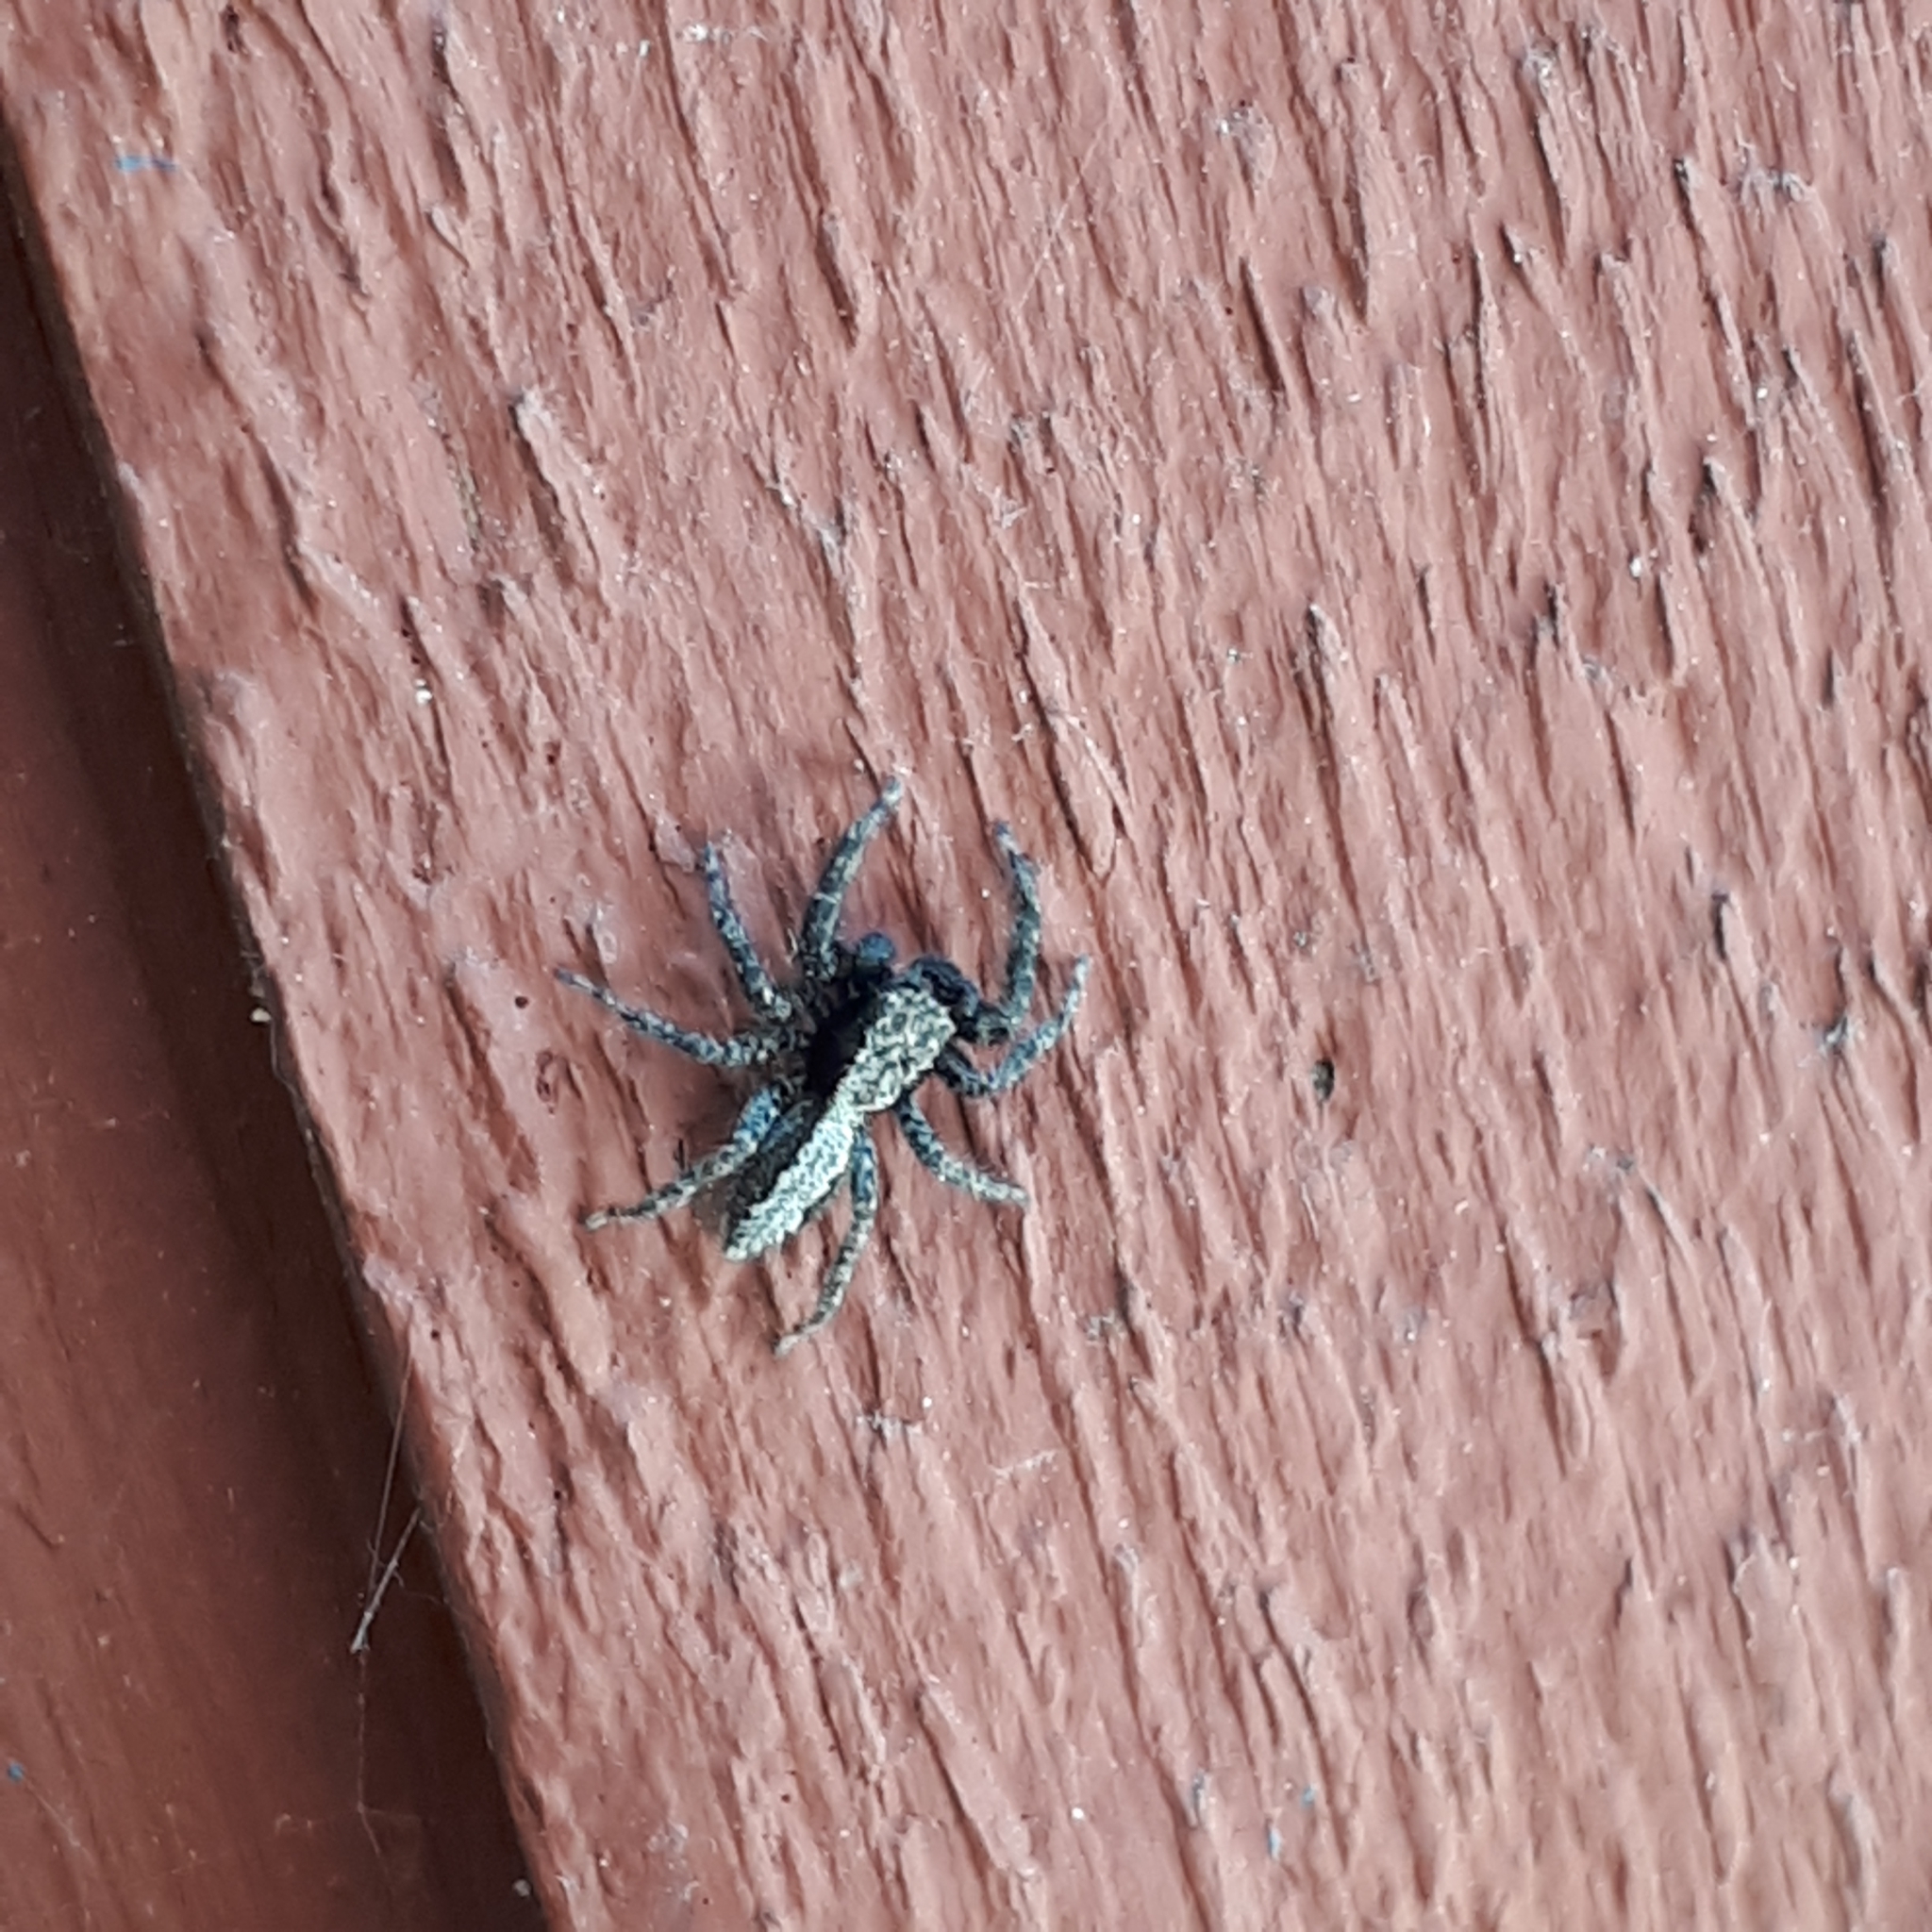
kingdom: Animalia
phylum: Arthropoda
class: Arachnida
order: Araneae
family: Salticidae
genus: Platycryptus
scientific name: Platycryptus californicus
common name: Jumping spiders
